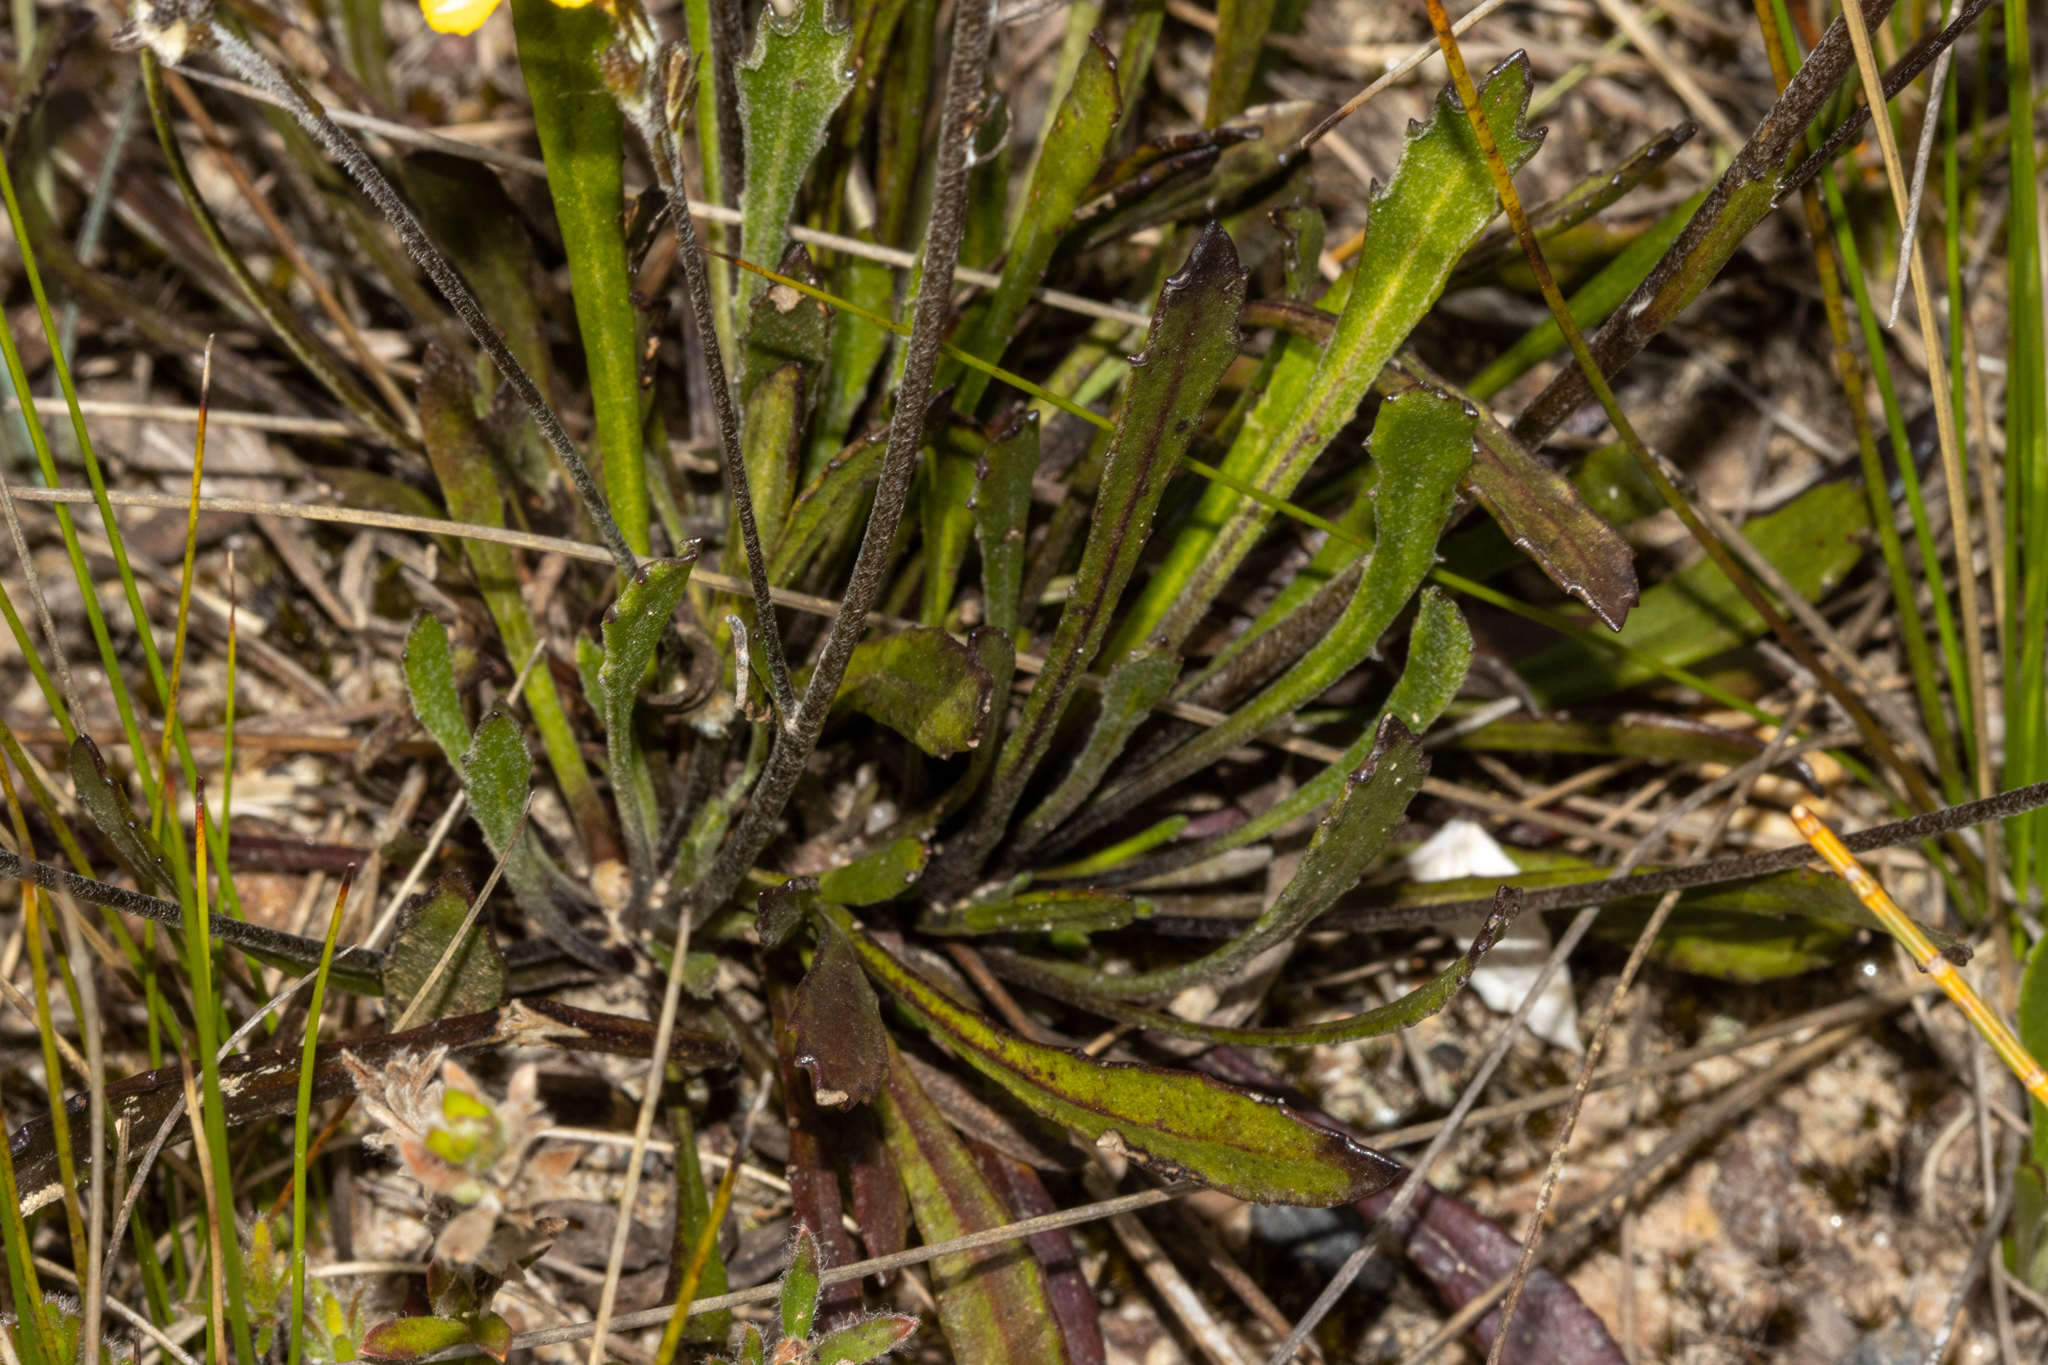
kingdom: Plantae
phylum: Tracheophyta
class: Magnoliopsida
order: Asterales
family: Goodeniaceae
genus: Goodenia
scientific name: Goodenia bellidifolia
